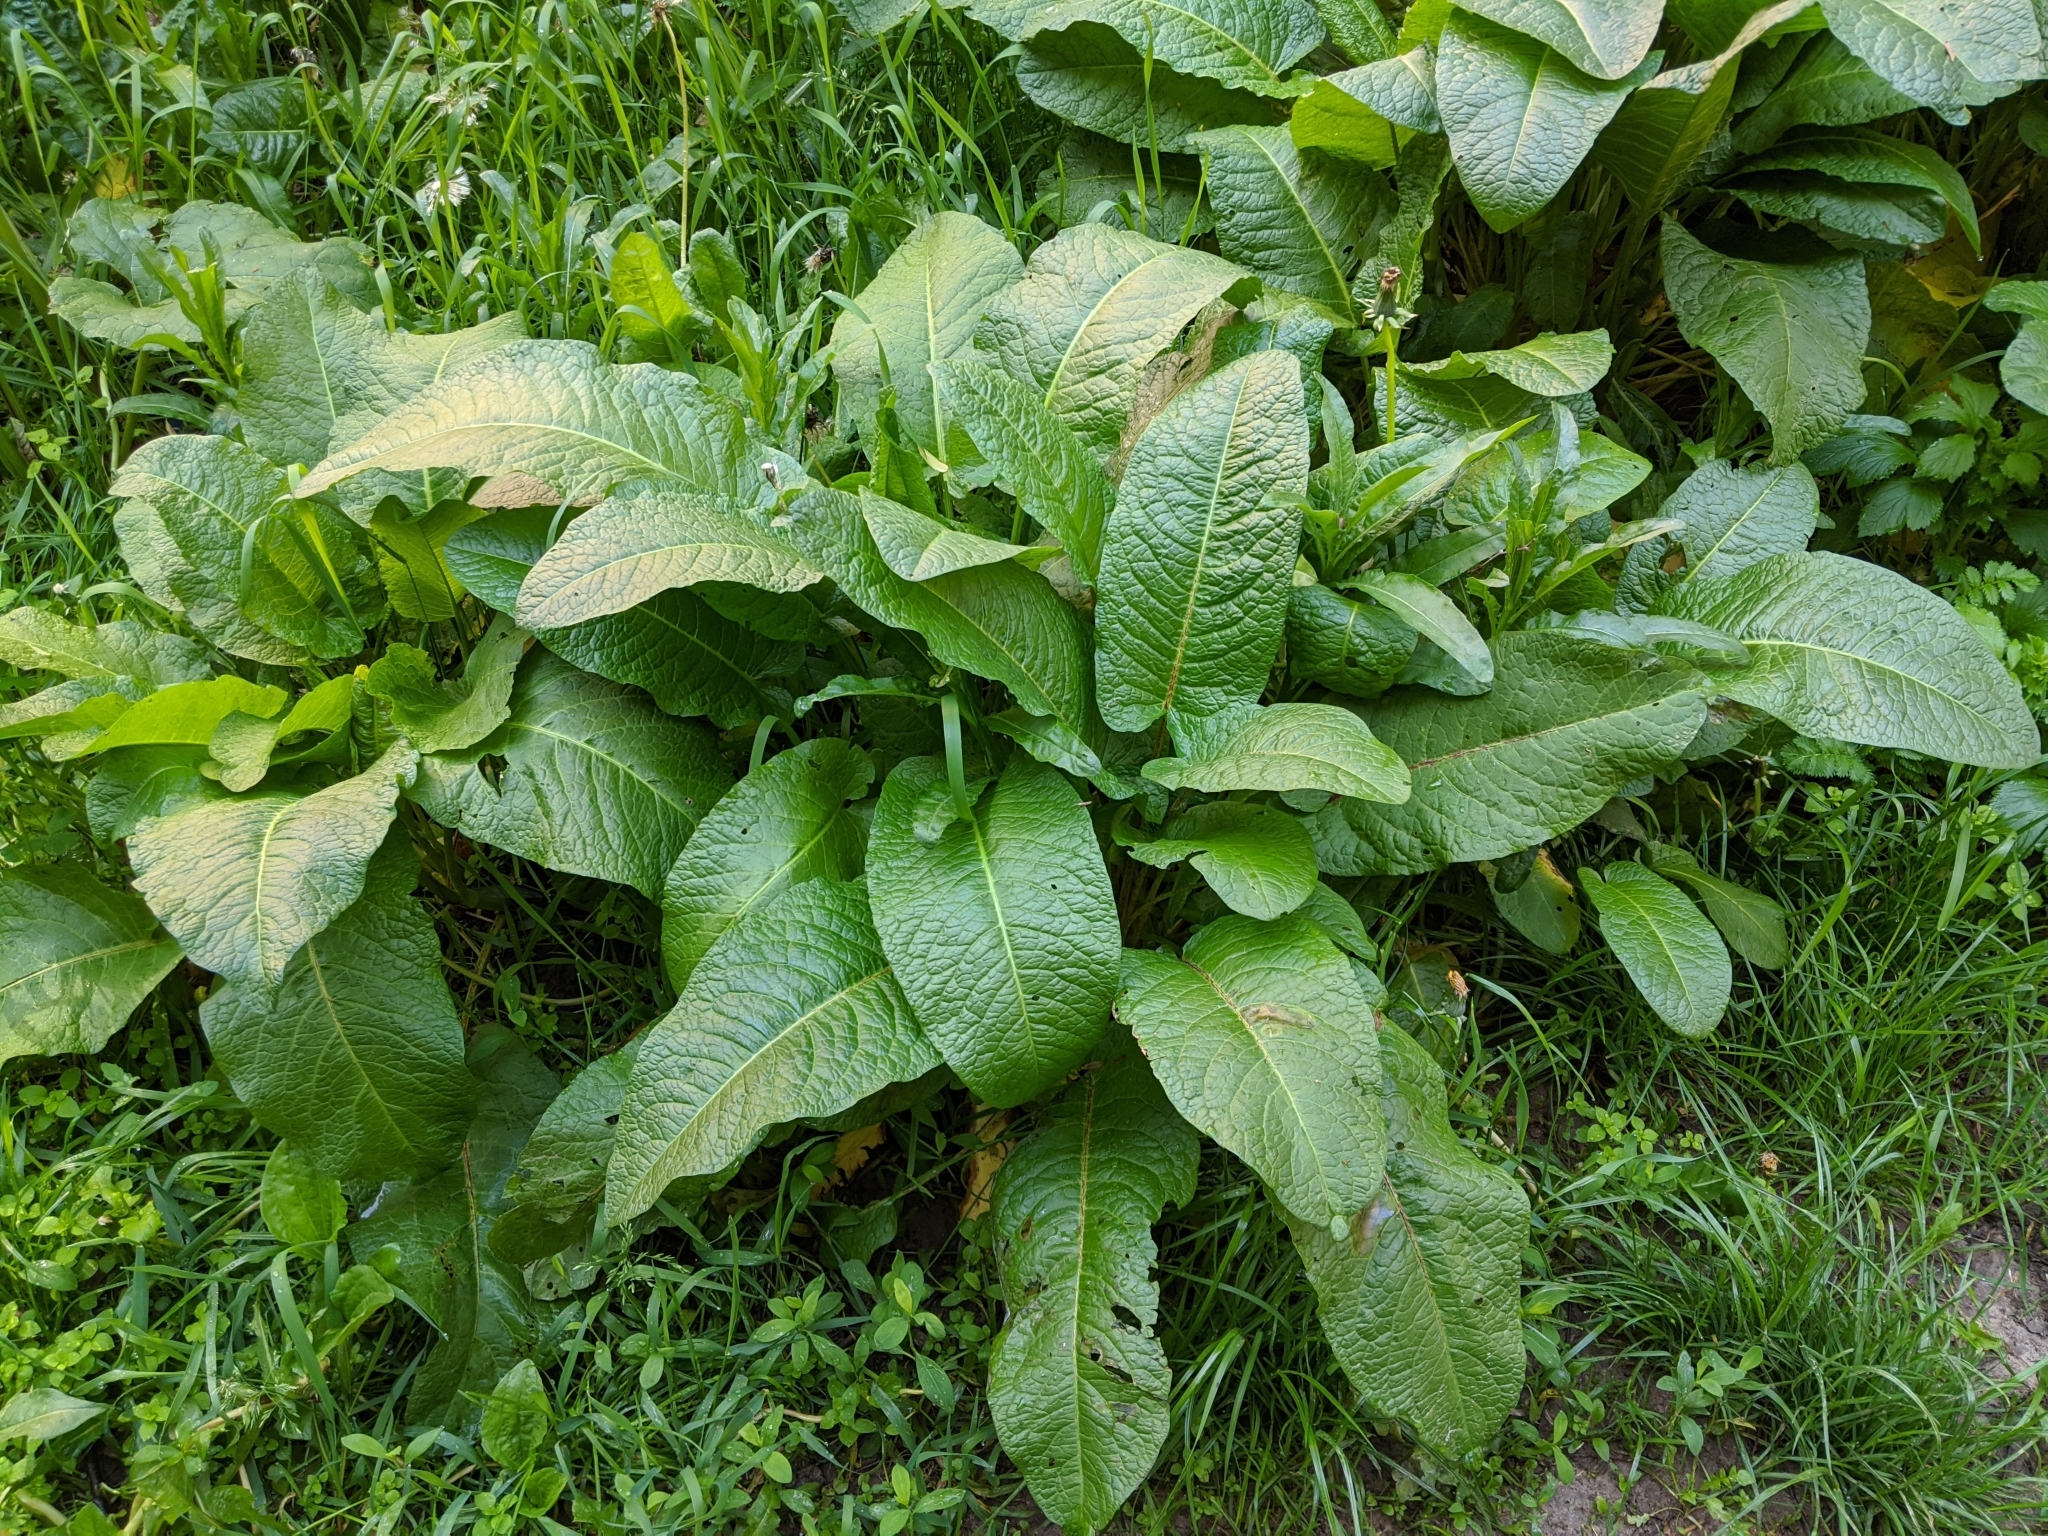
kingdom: Plantae
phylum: Tracheophyta
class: Magnoliopsida
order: Caryophyllales
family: Polygonaceae
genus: Rumex
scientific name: Rumex obtusifolius
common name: Bitter dock
